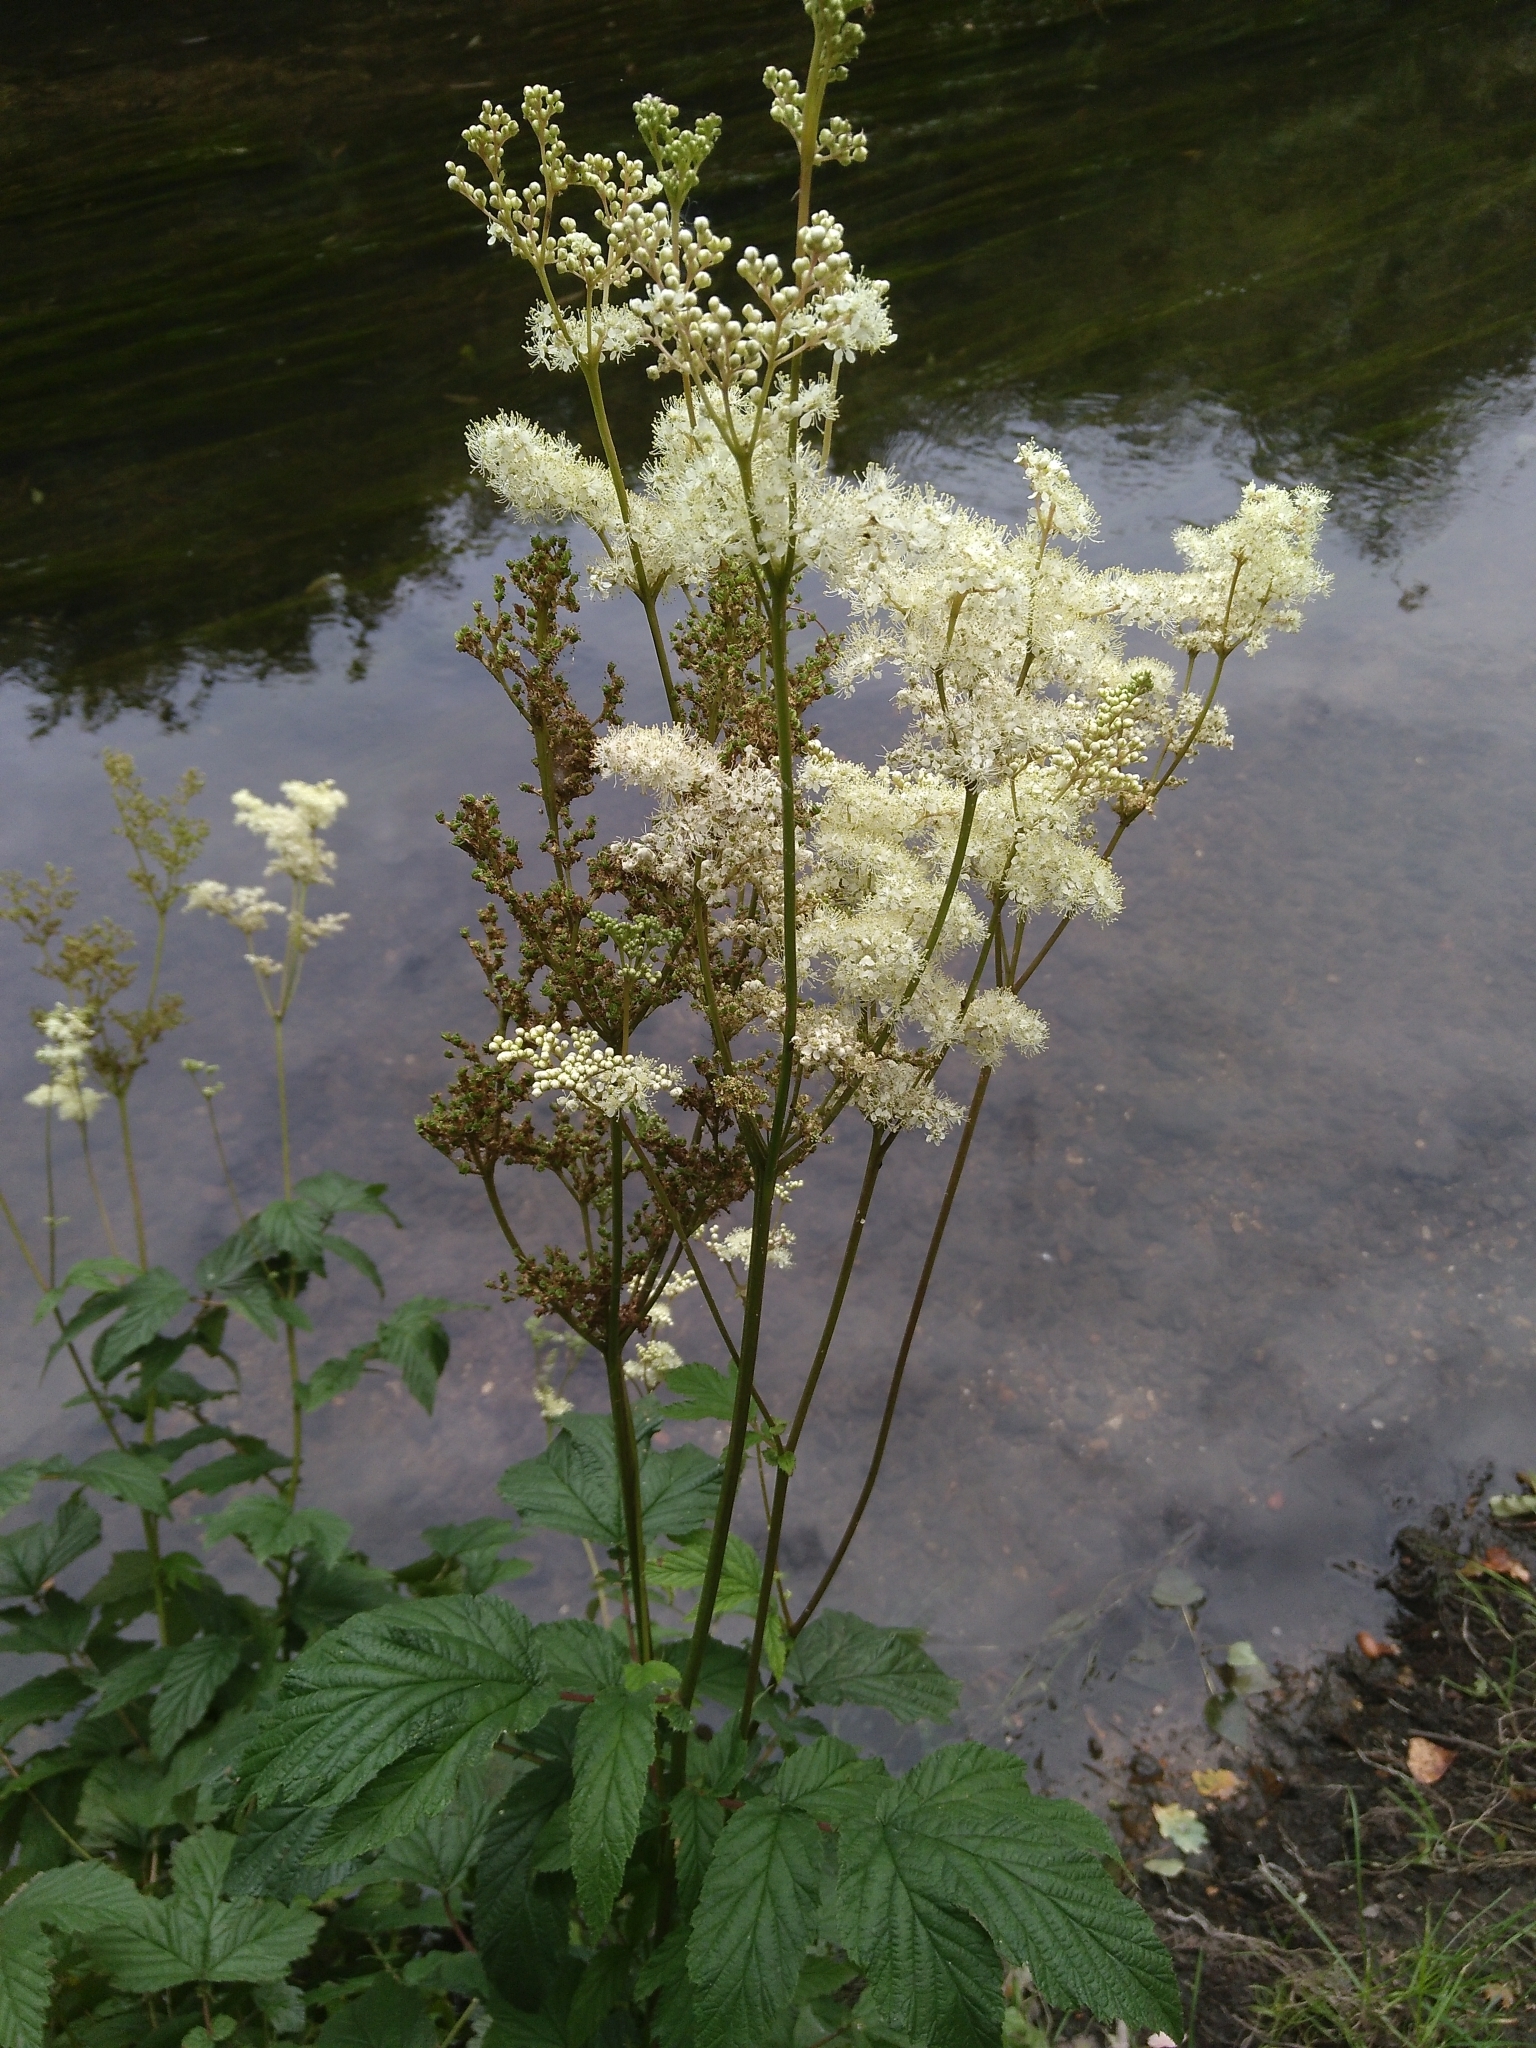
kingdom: Plantae
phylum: Tracheophyta
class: Magnoliopsida
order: Rosales
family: Rosaceae
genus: Filipendula
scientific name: Filipendula ulmaria
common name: Meadowsweet
